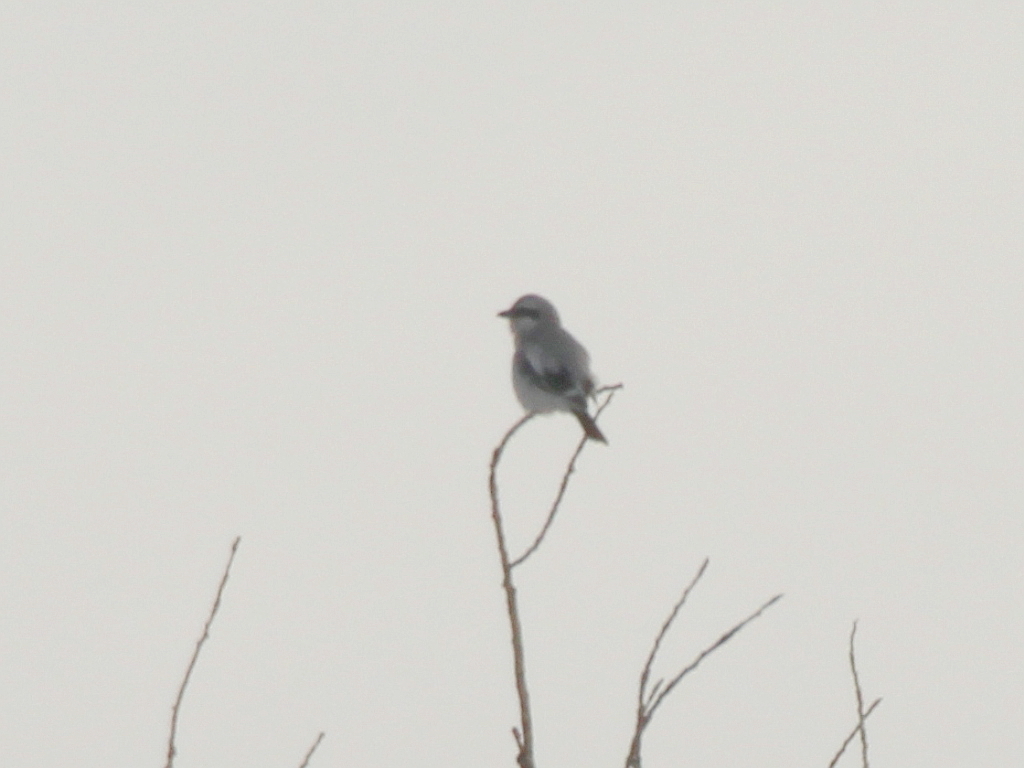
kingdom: Animalia
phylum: Chordata
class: Aves
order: Passeriformes
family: Laniidae
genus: Lanius
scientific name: Lanius borealis
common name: Northern shrike
